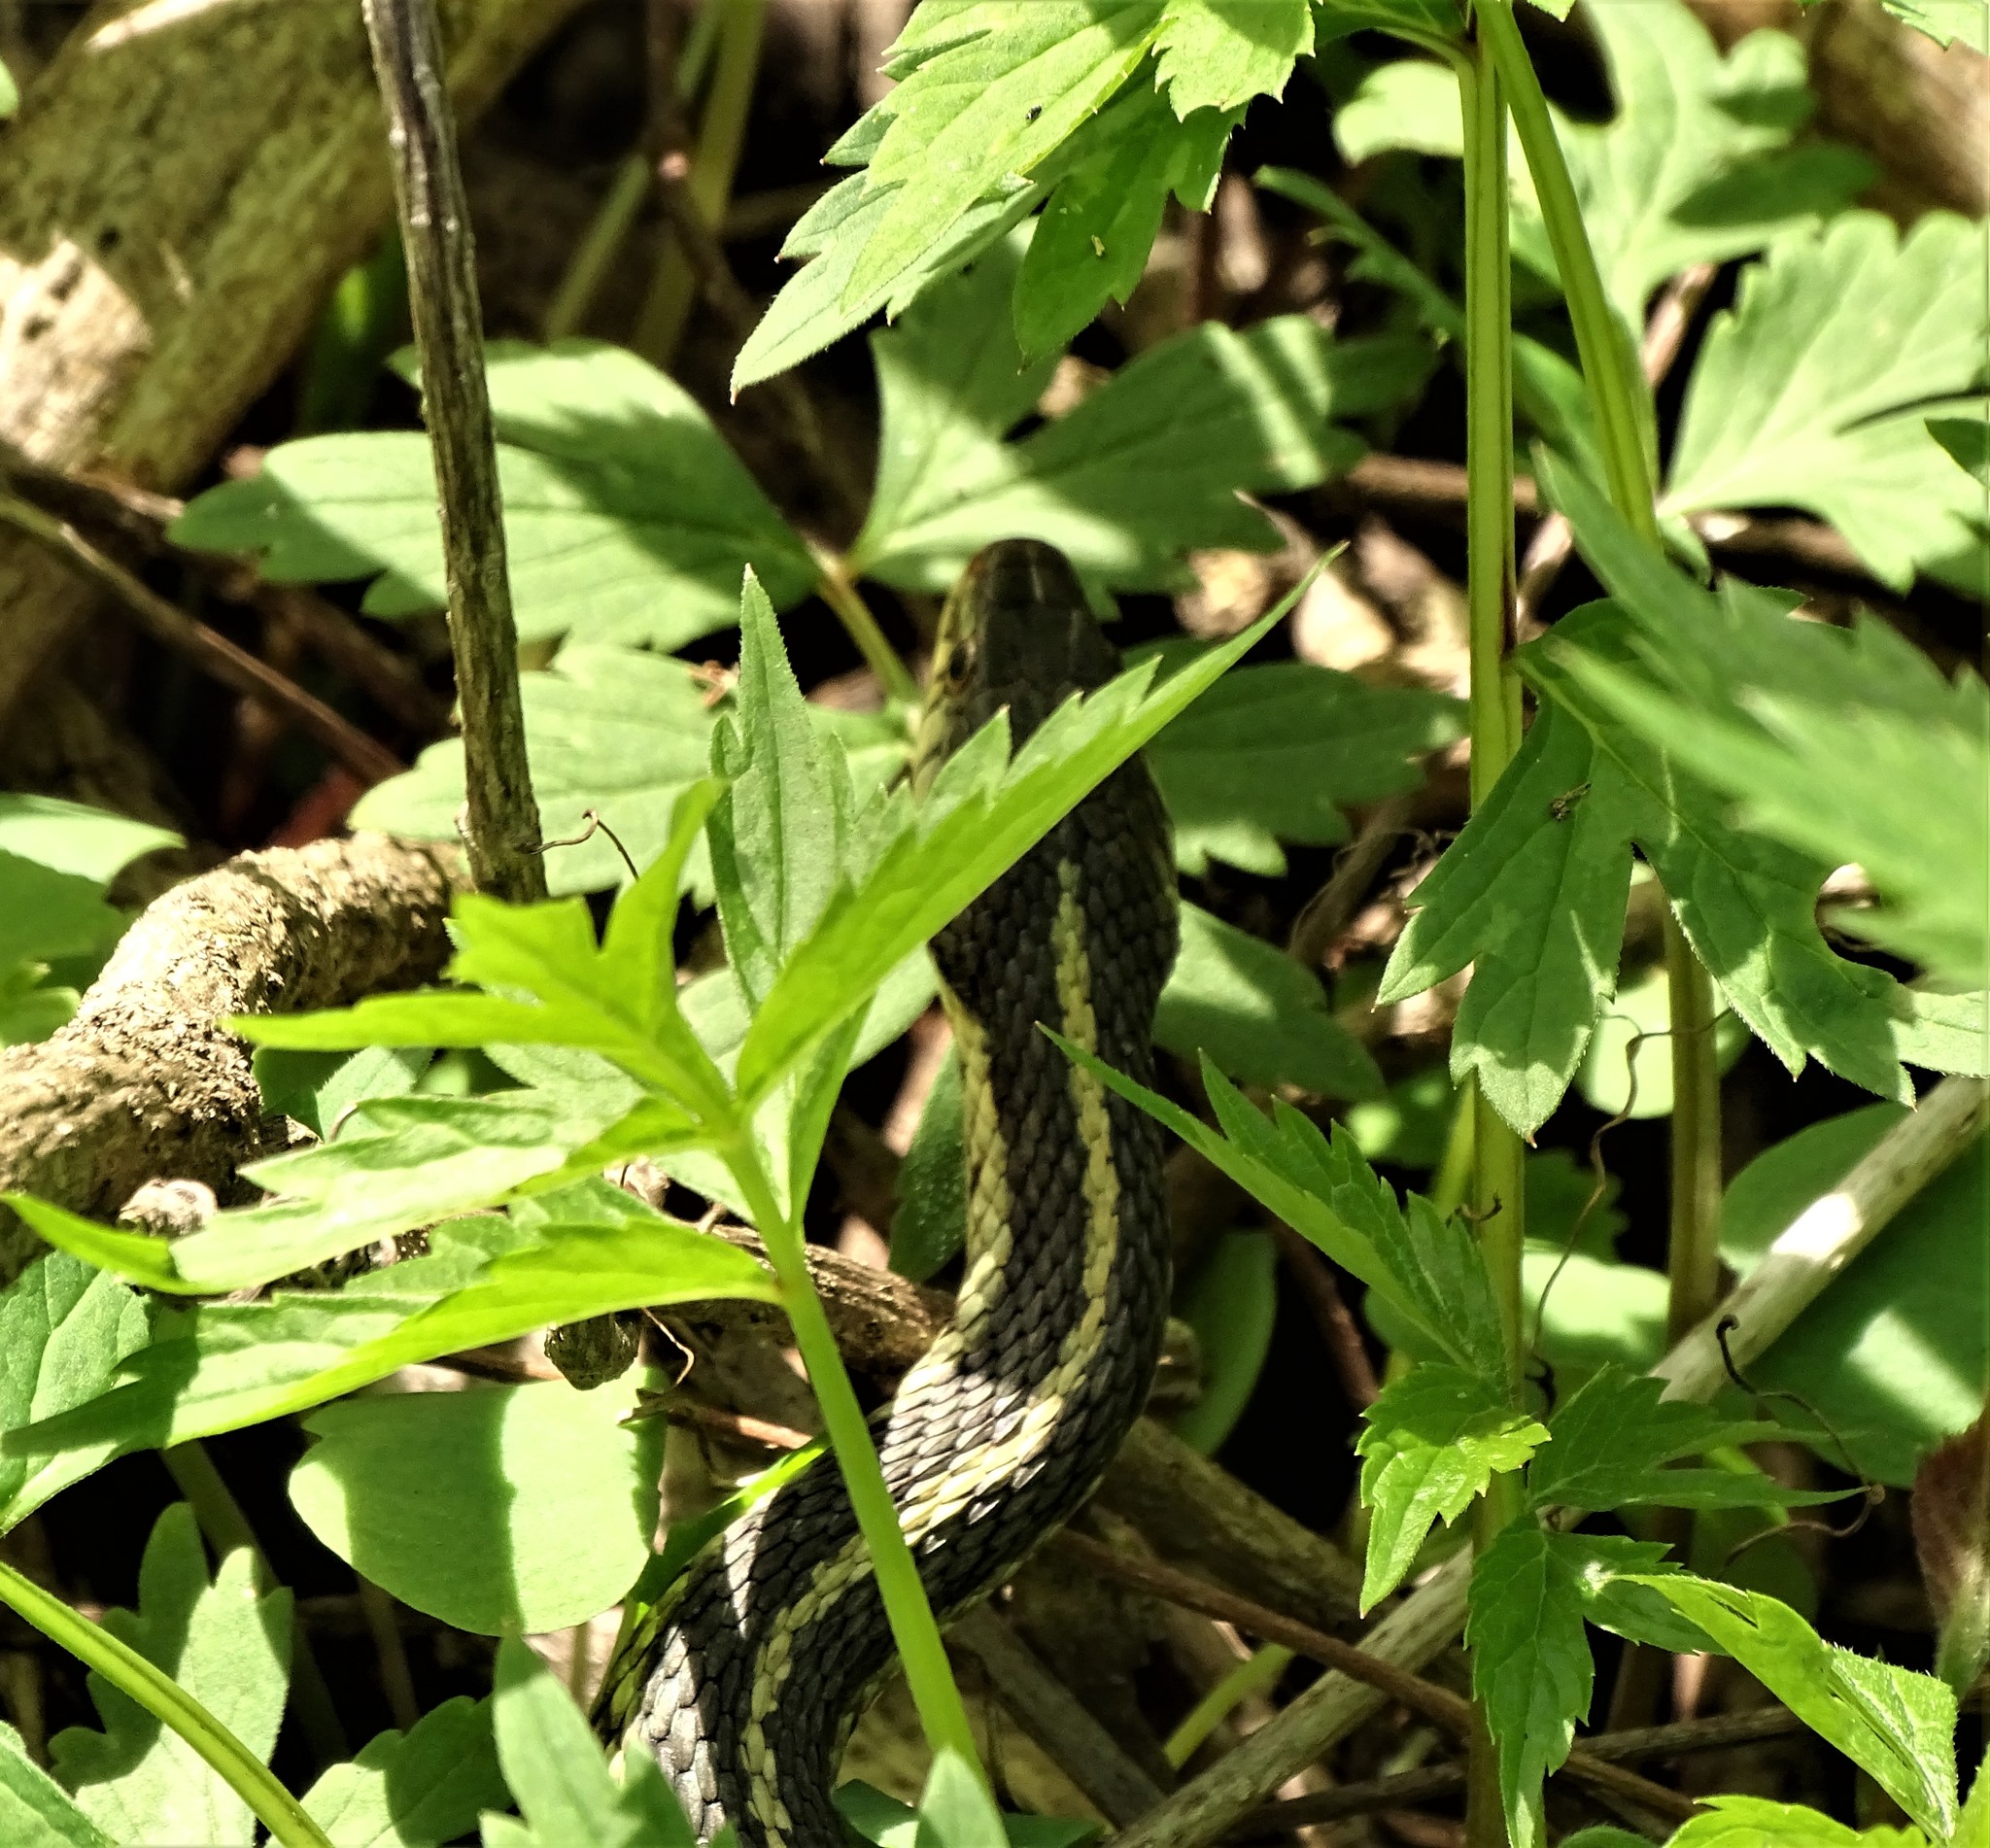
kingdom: Animalia
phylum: Chordata
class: Squamata
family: Colubridae
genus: Thamnophis
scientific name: Thamnophis sirtalis
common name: Common garter snake
